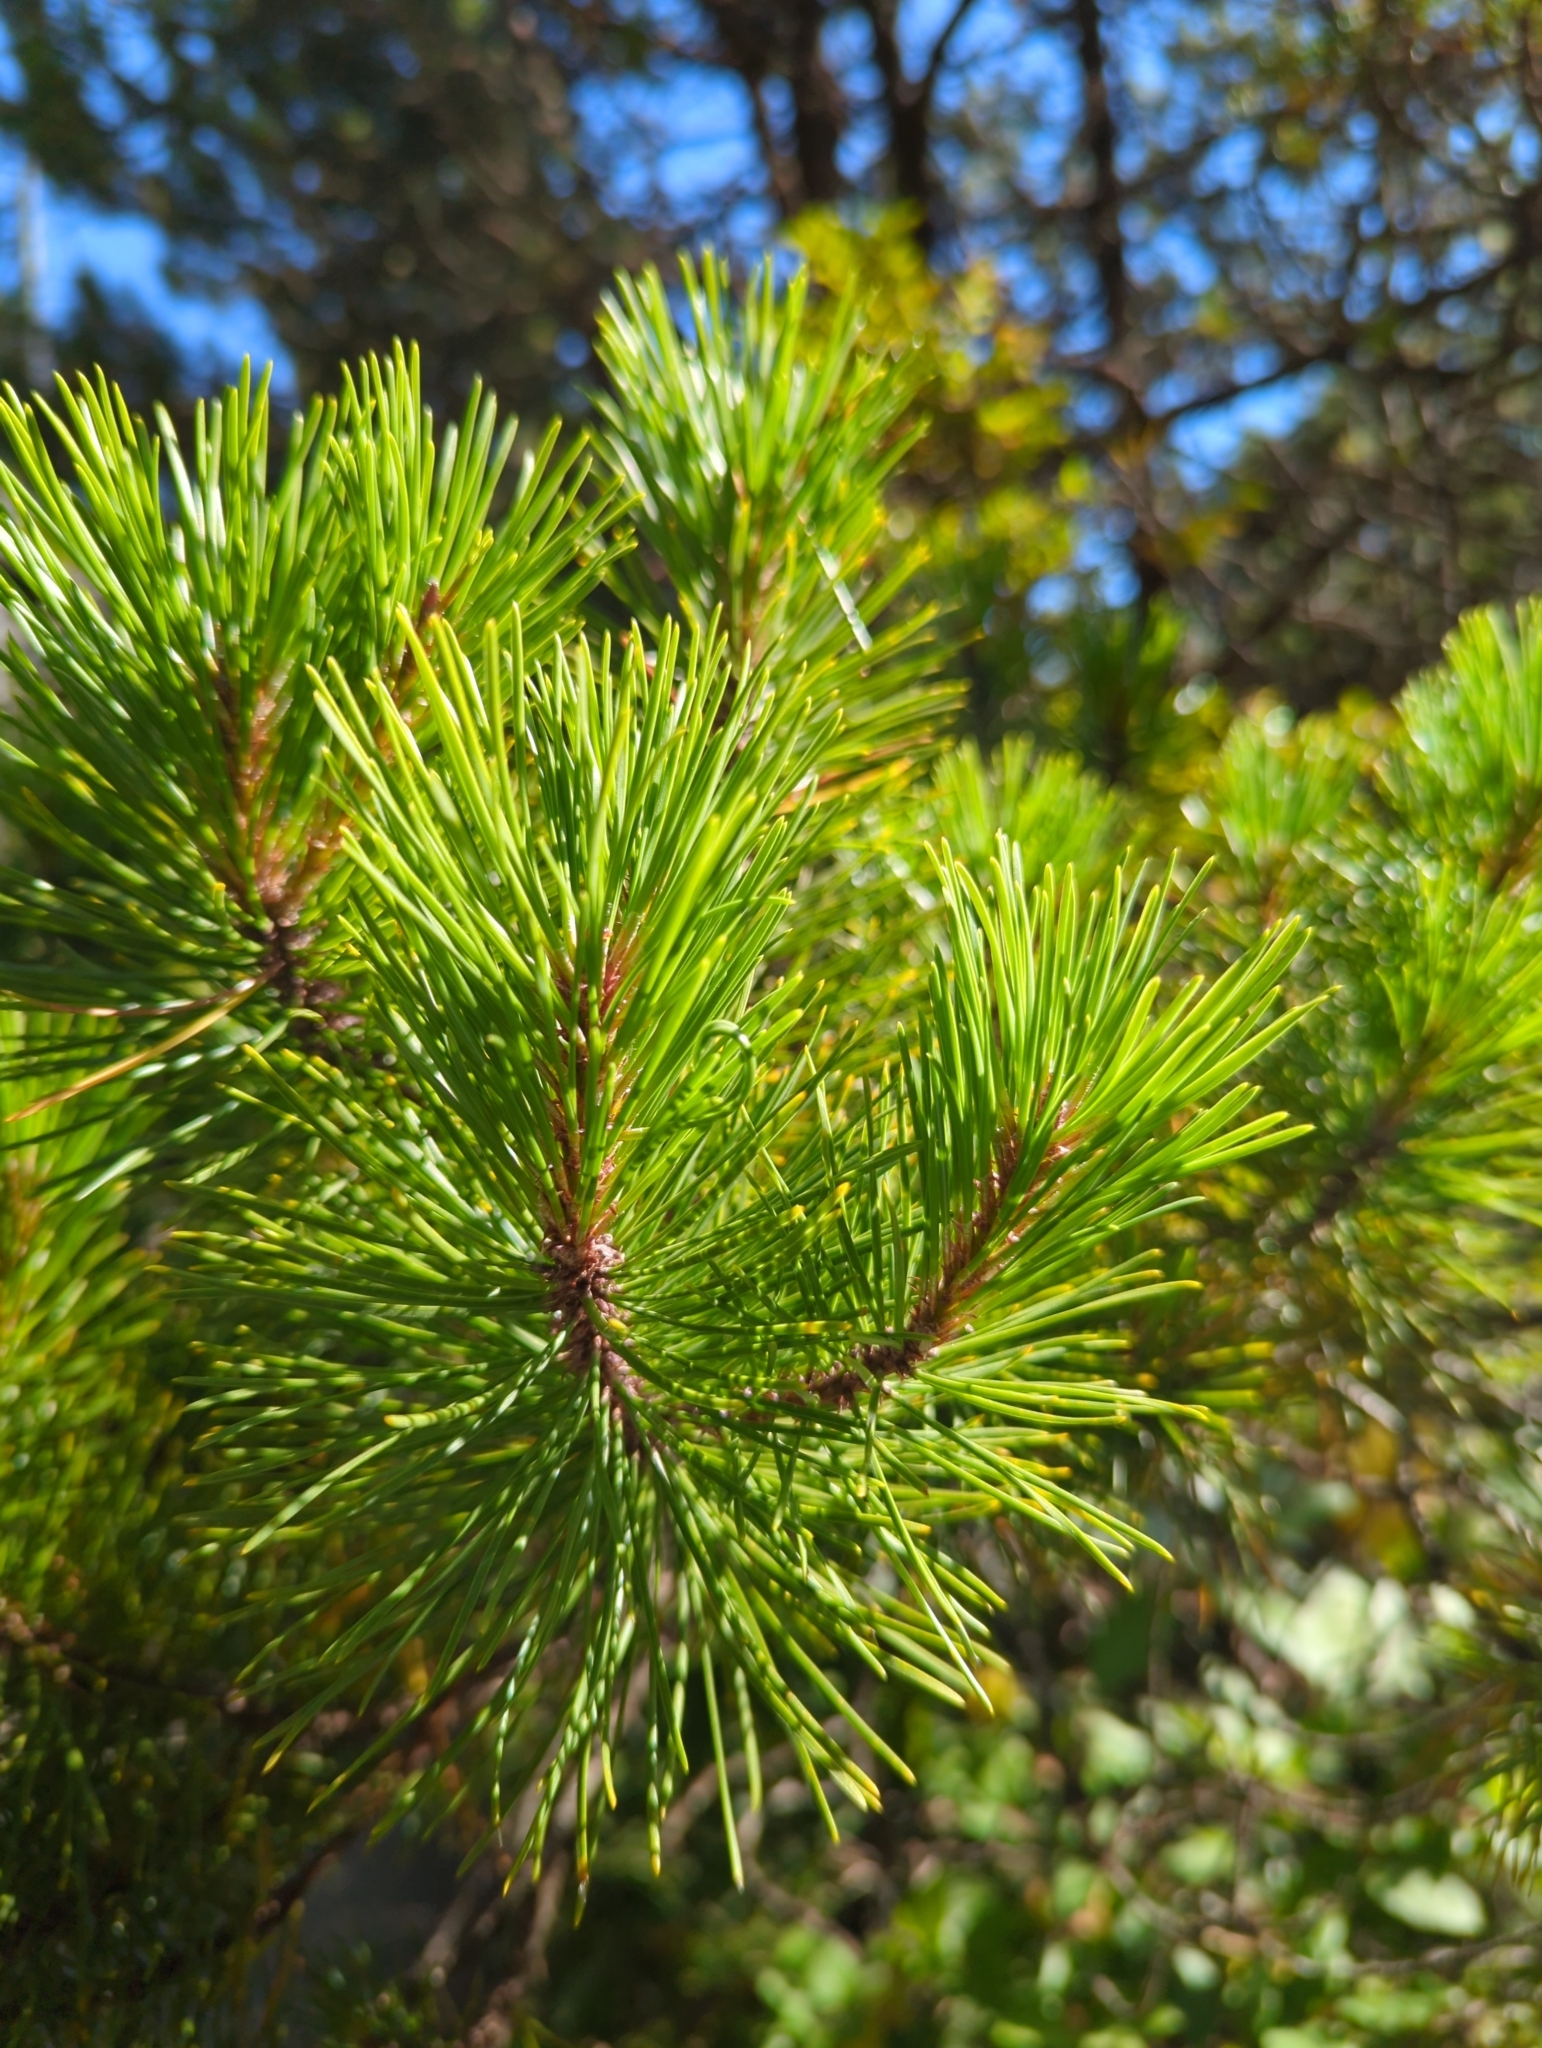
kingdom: Plantae
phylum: Tracheophyta
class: Pinopsida
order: Pinales
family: Pinaceae
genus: Pinus
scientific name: Pinus contorta
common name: Lodgepole pine
